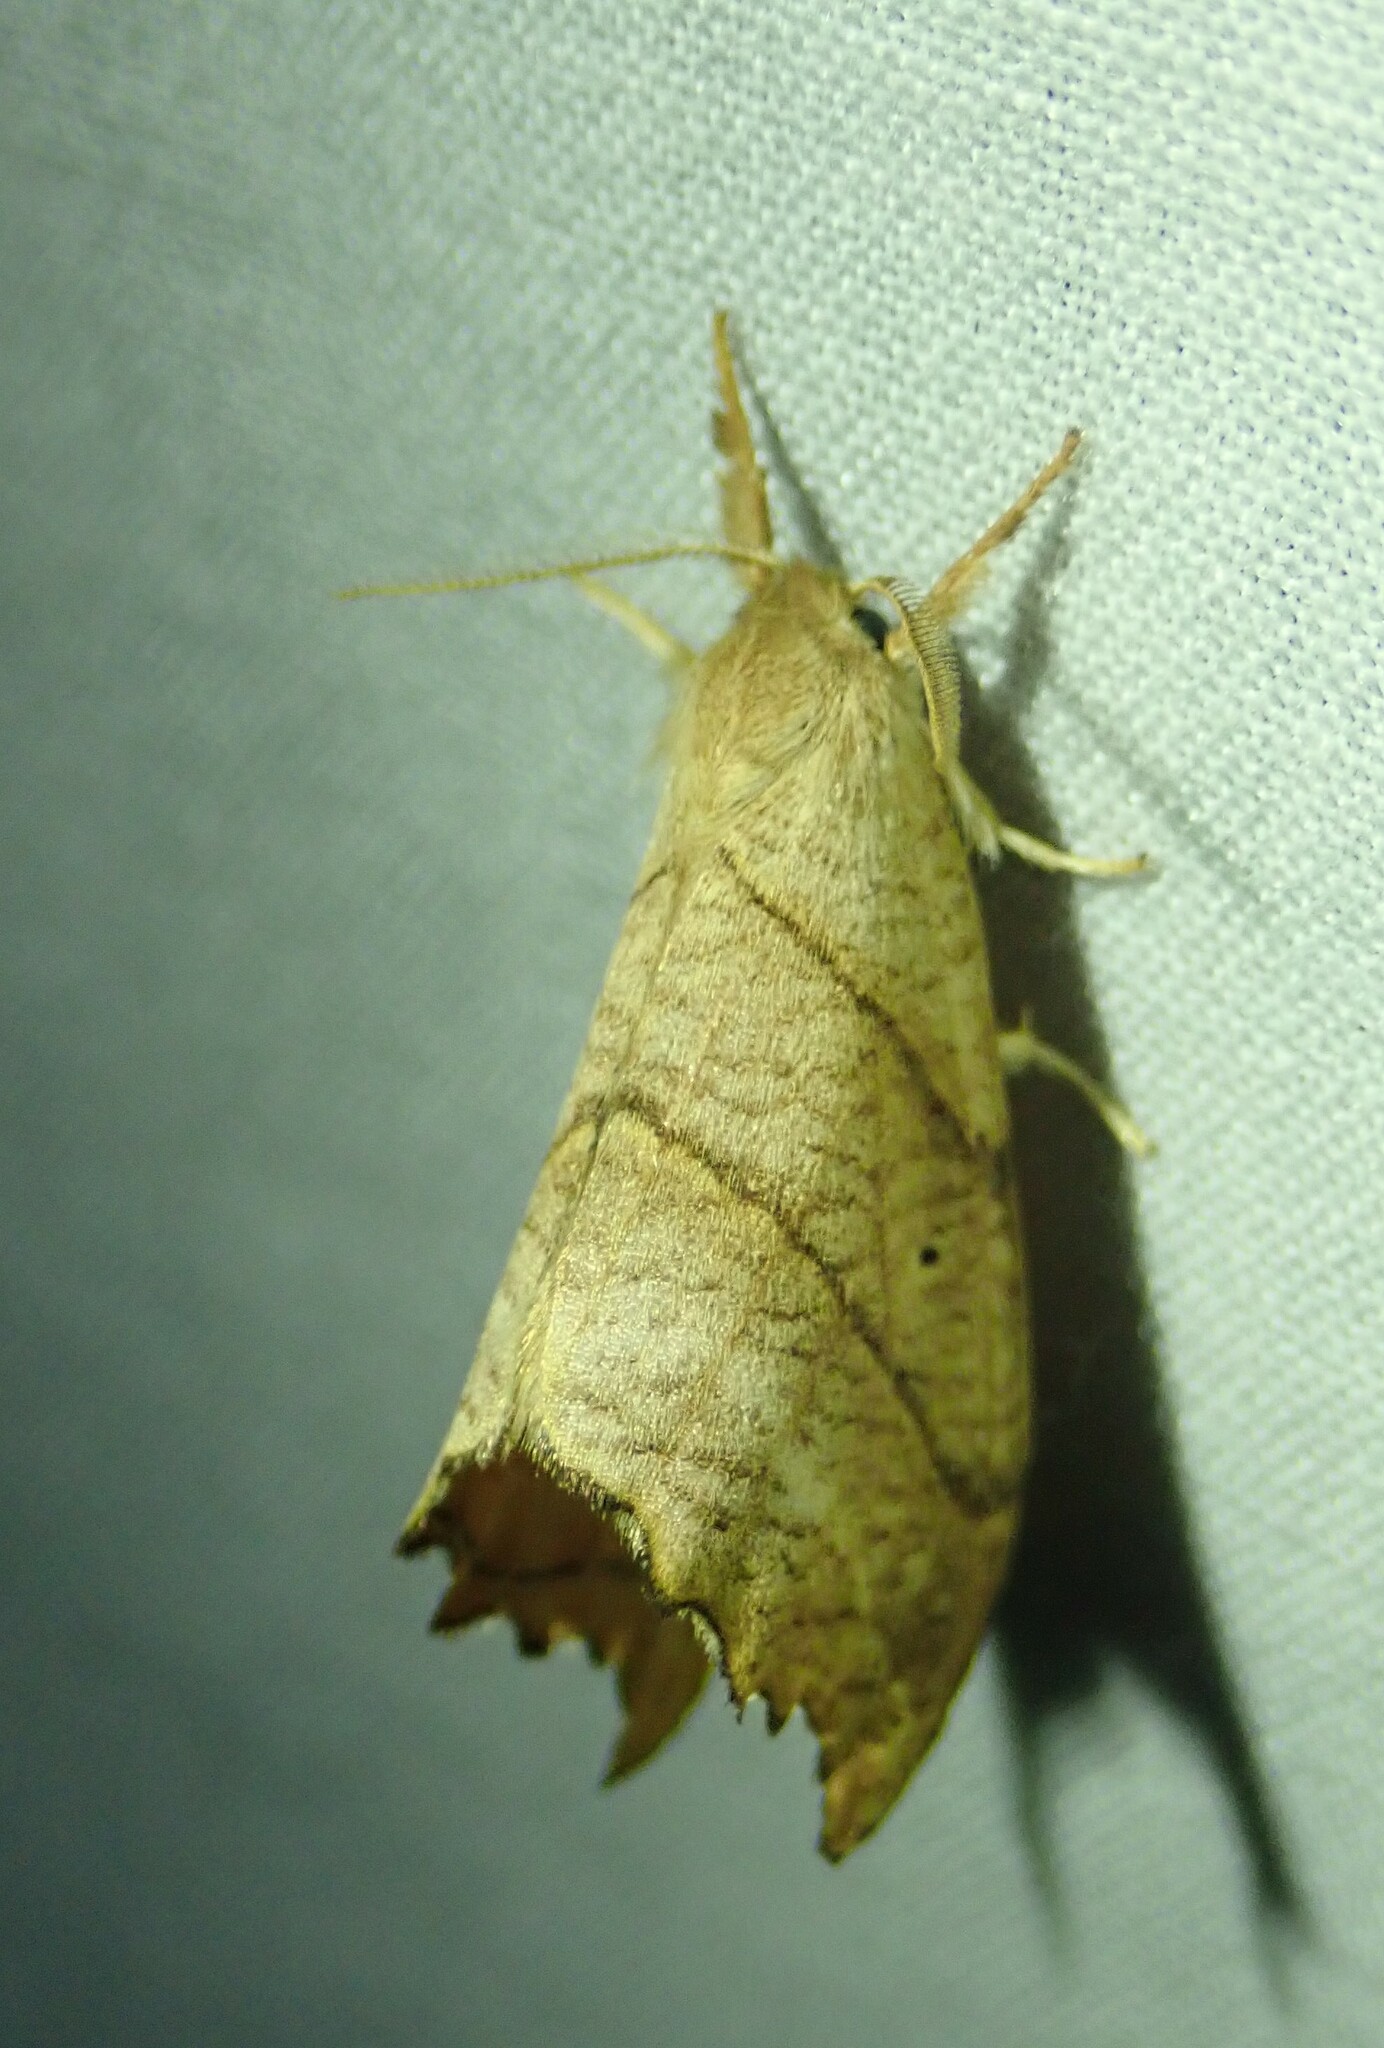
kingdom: Animalia
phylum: Arthropoda
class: Insecta
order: Lepidoptera
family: Drepanidae
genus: Falcaria
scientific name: Falcaria bilineata
